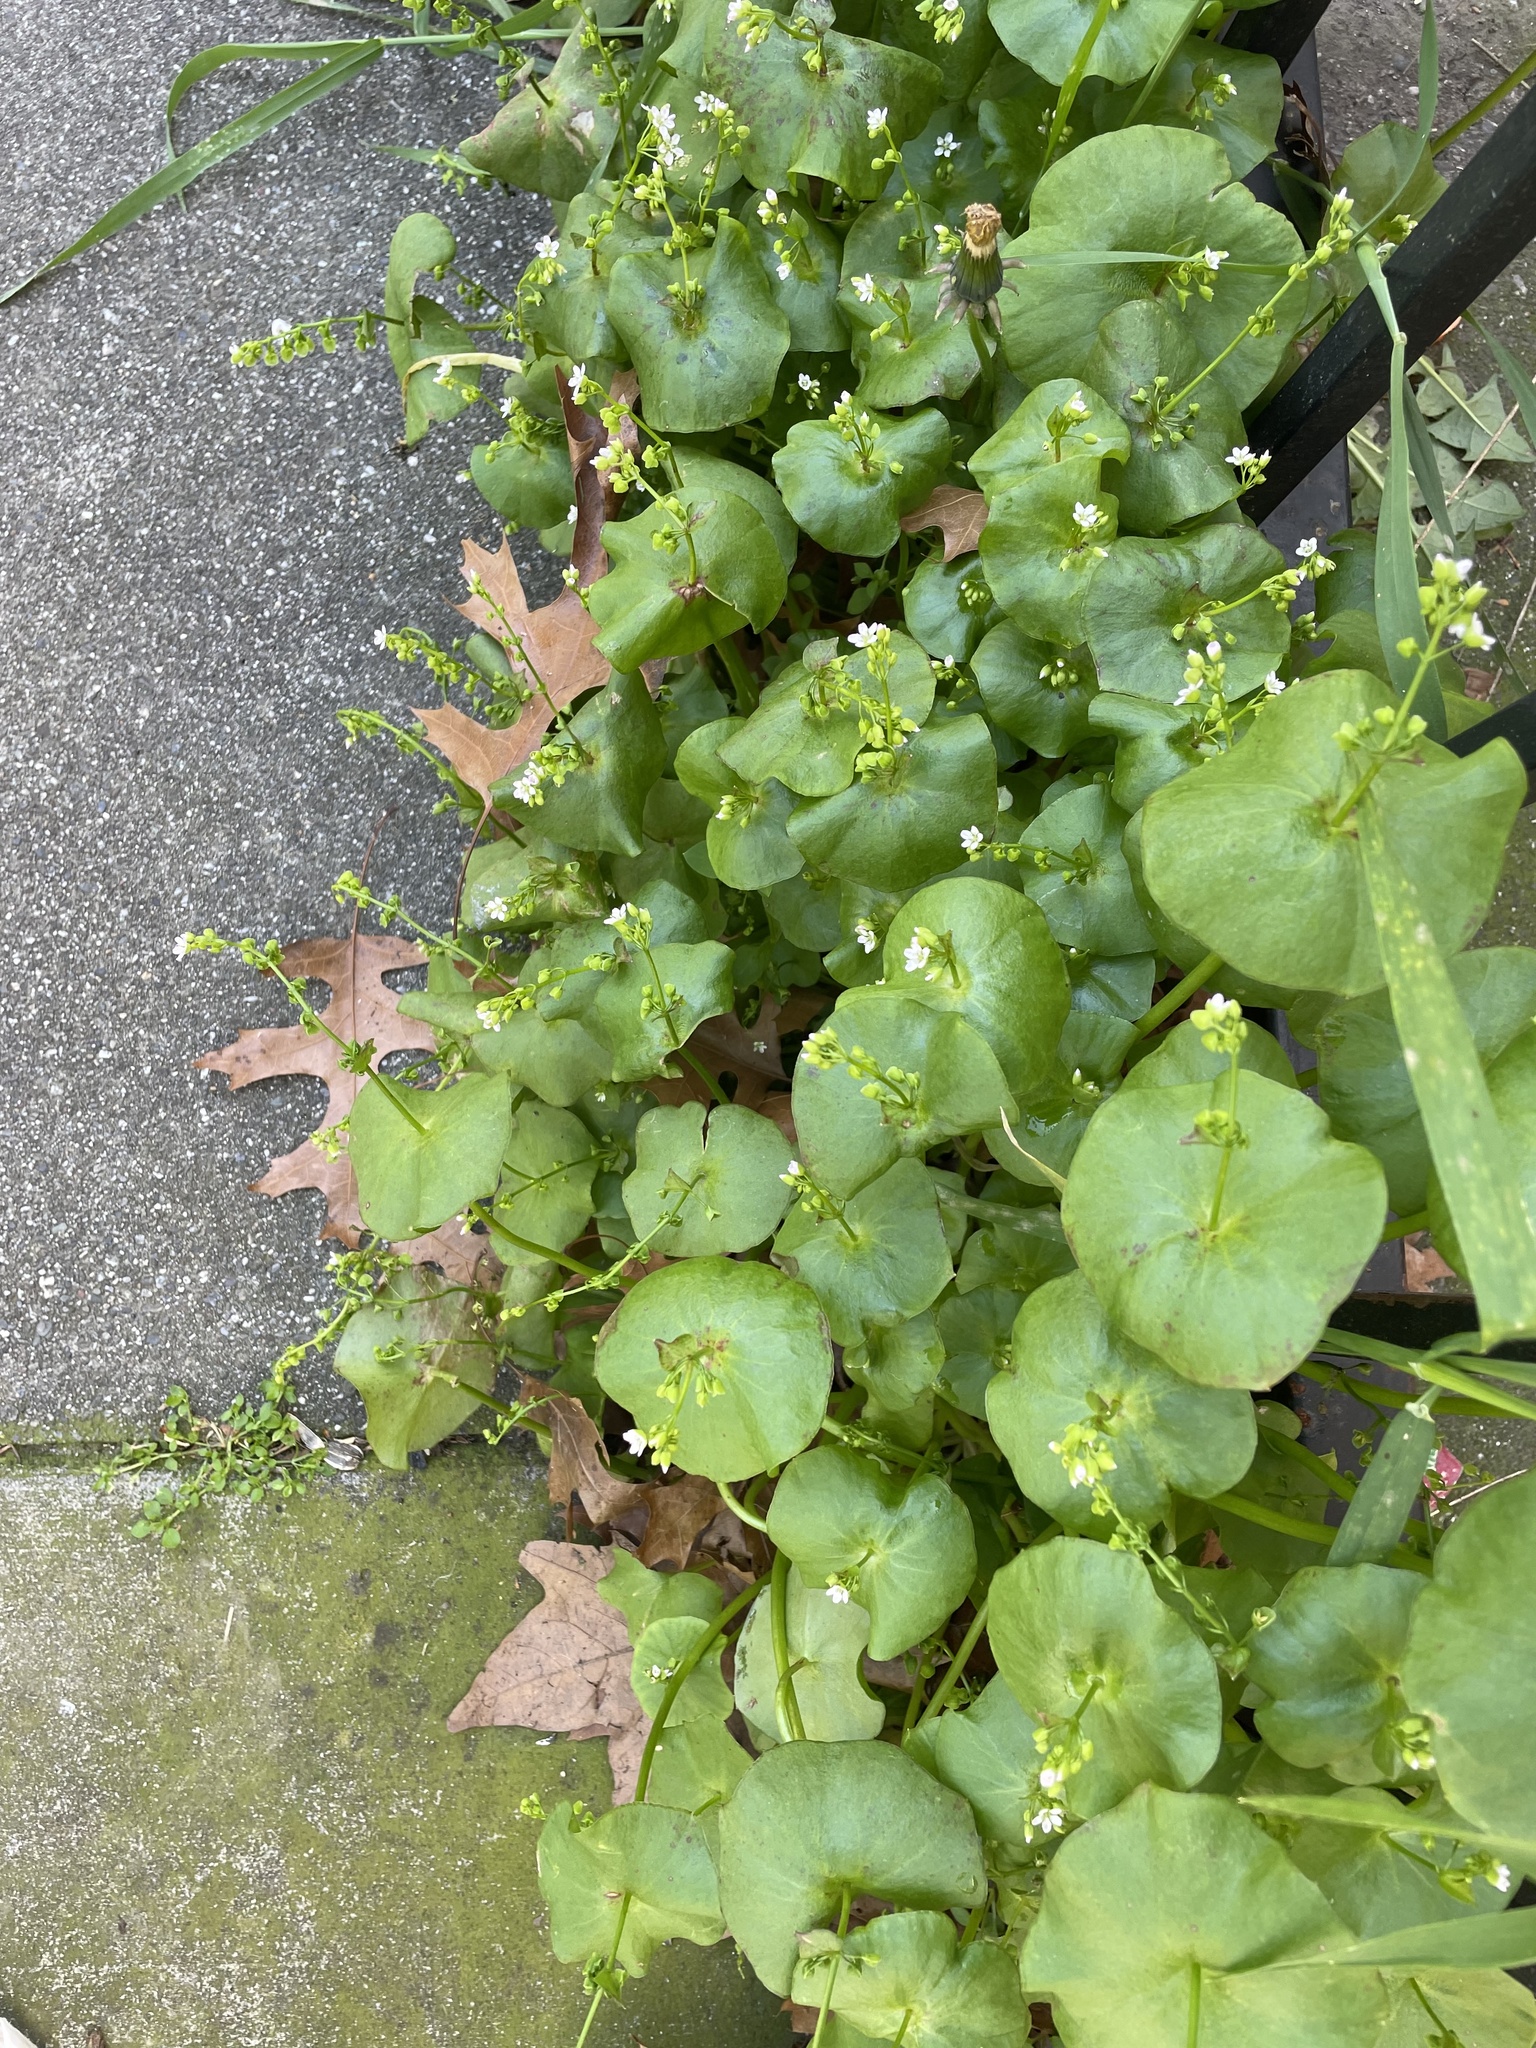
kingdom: Plantae
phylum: Tracheophyta
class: Magnoliopsida
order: Caryophyllales
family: Montiaceae
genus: Claytonia
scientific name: Claytonia perfoliata
